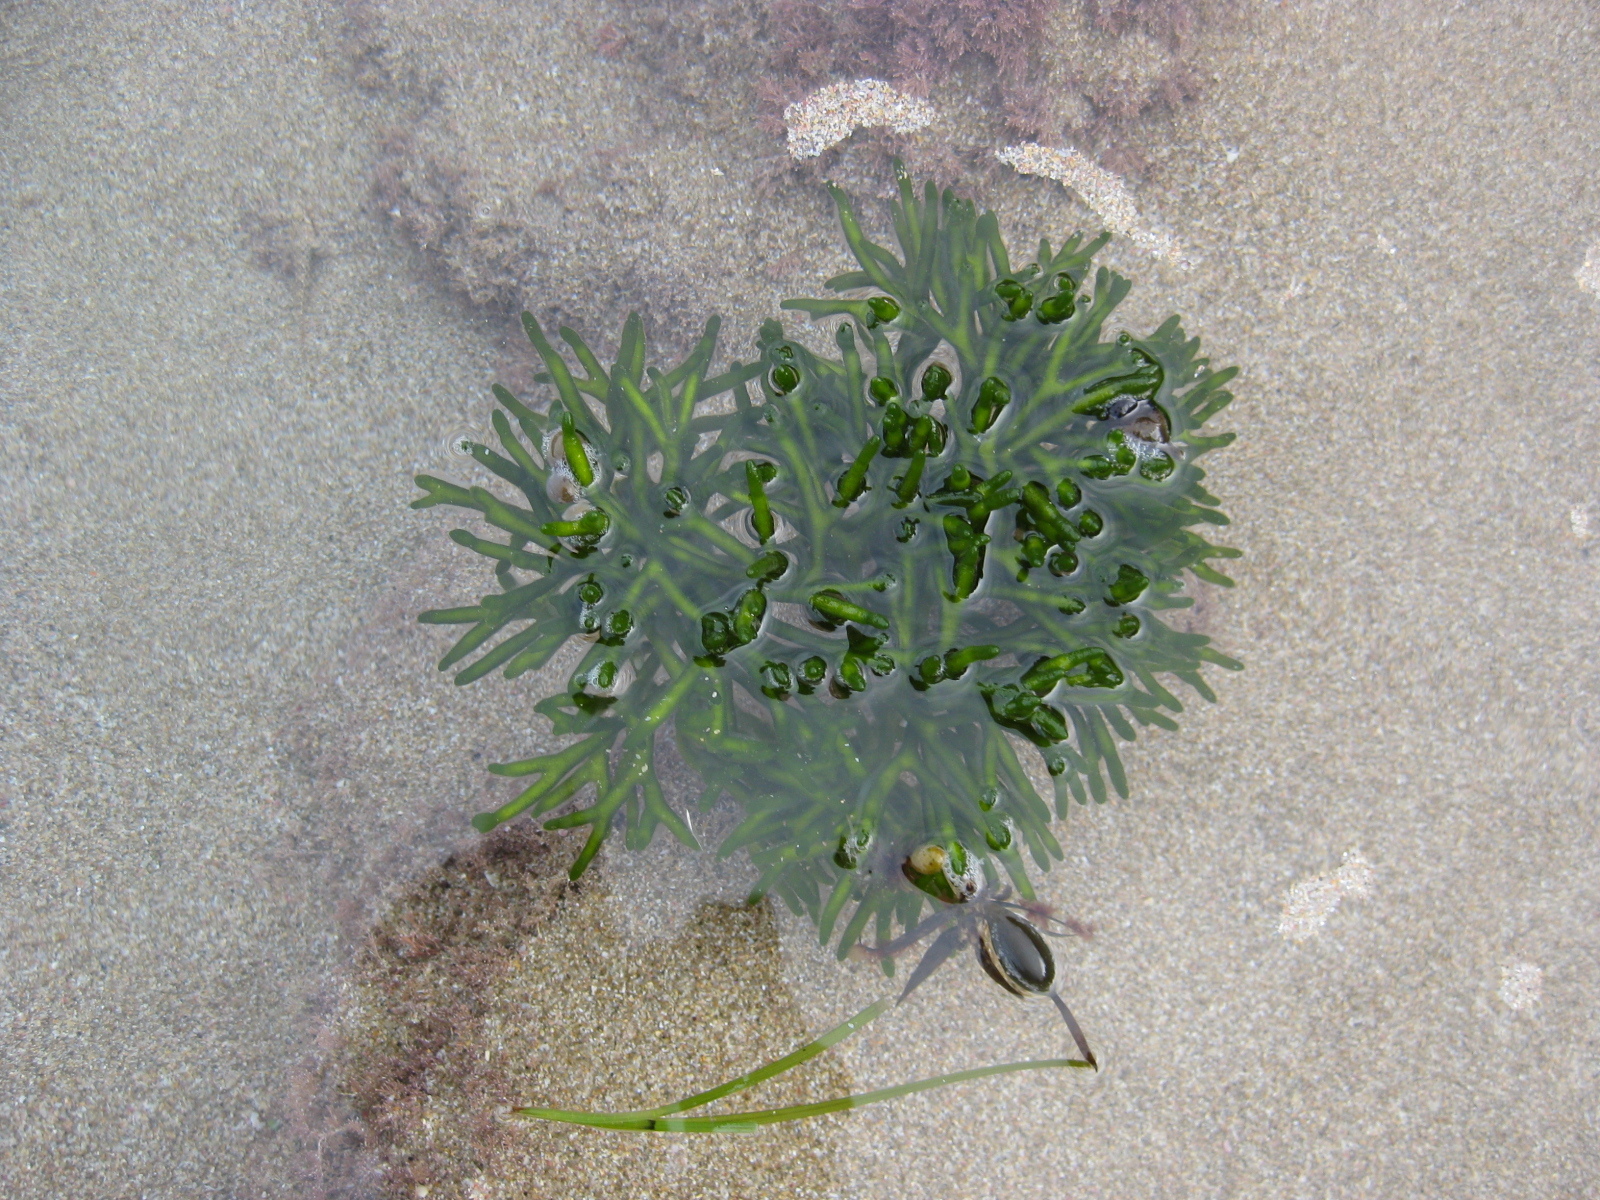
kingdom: Plantae
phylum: Chlorophyta
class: Ulvophyceae
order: Bryopsidales
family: Codiaceae
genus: Codium
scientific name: Codium fragile
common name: Dead man's fingers
